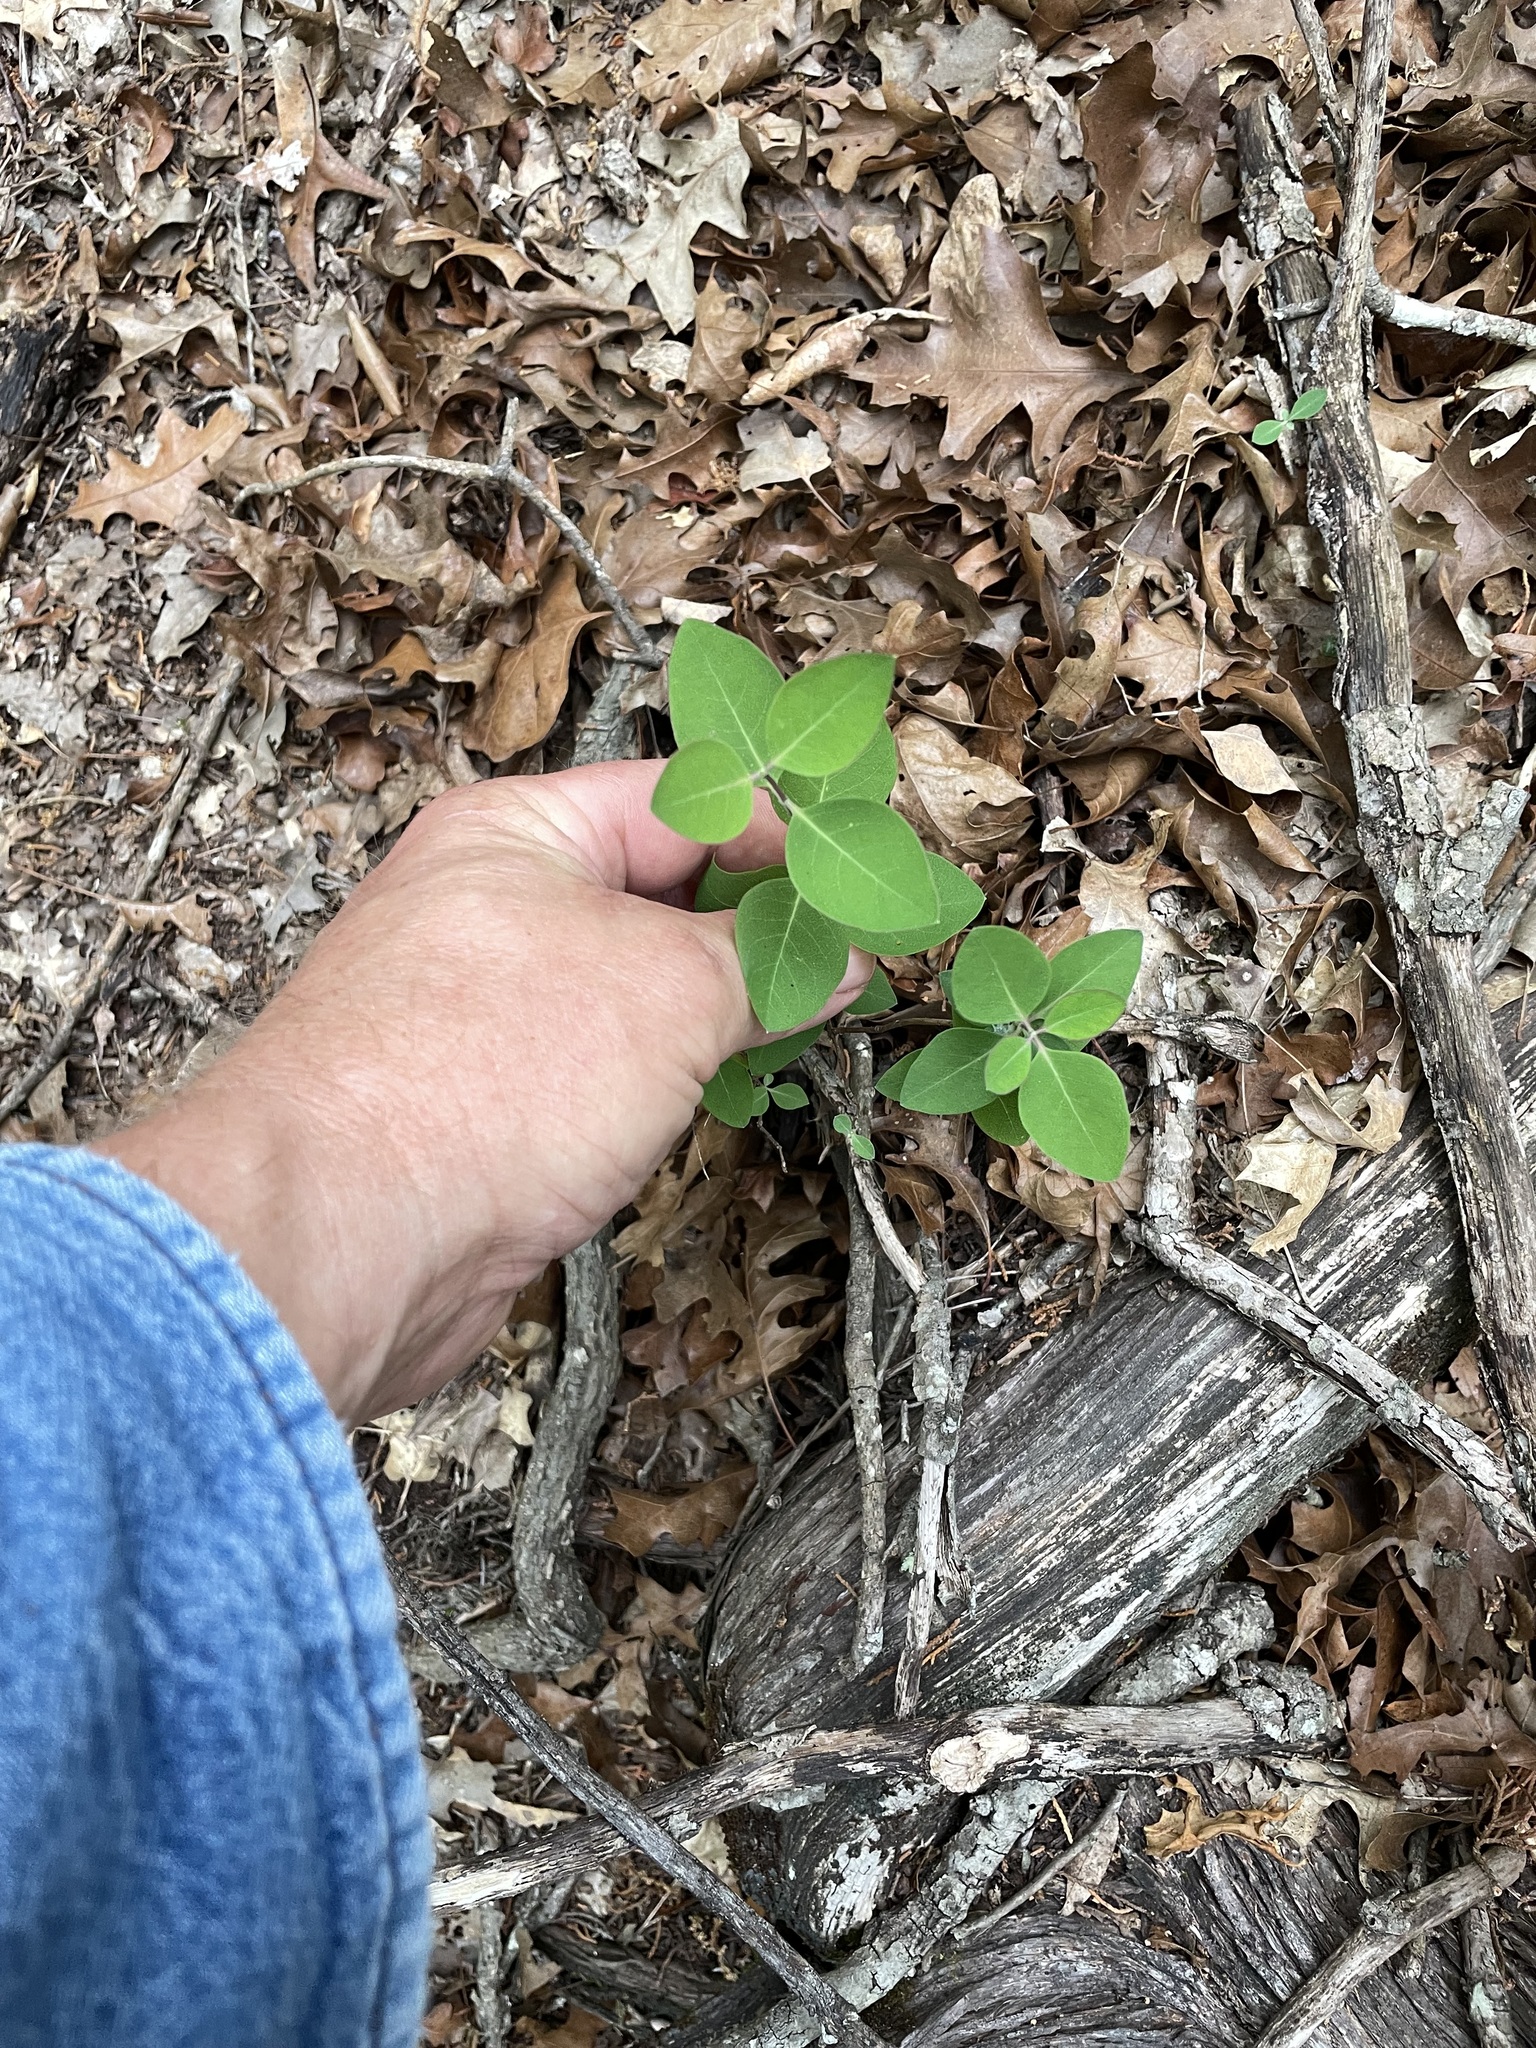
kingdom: Plantae
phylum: Tracheophyta
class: Magnoliopsida
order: Dipsacales
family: Caprifoliaceae
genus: Lonicera
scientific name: Lonicera albiflora
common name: White honeysuckle
